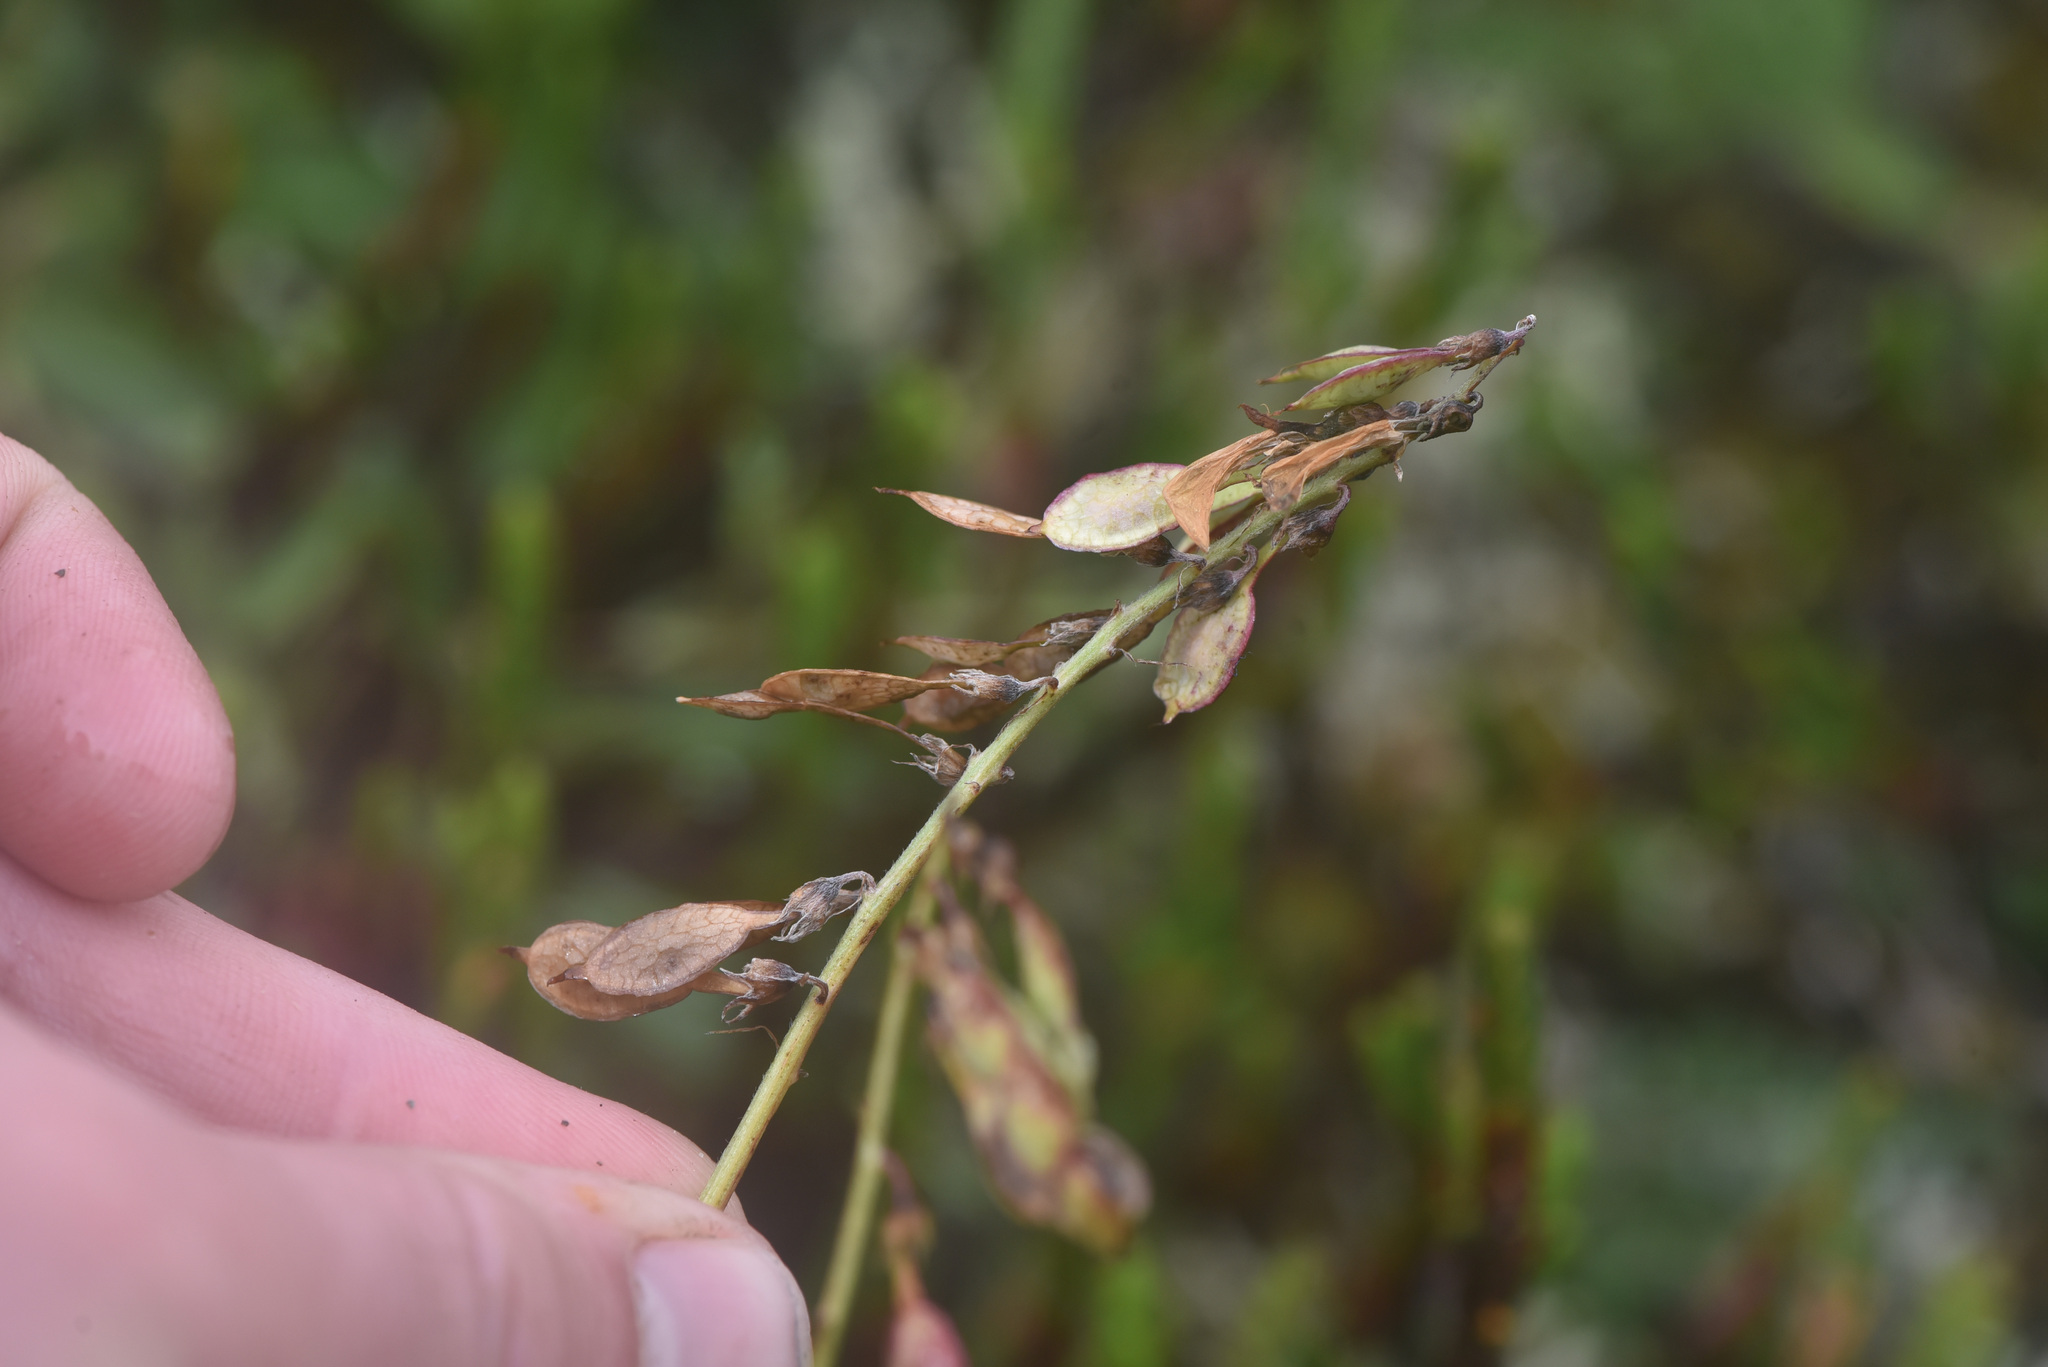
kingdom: Plantae
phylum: Tracheophyta
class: Magnoliopsida
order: Fabales
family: Fabaceae
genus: Hedysarum
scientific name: Hedysarum alpinum
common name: Alpine sweet-vetch
